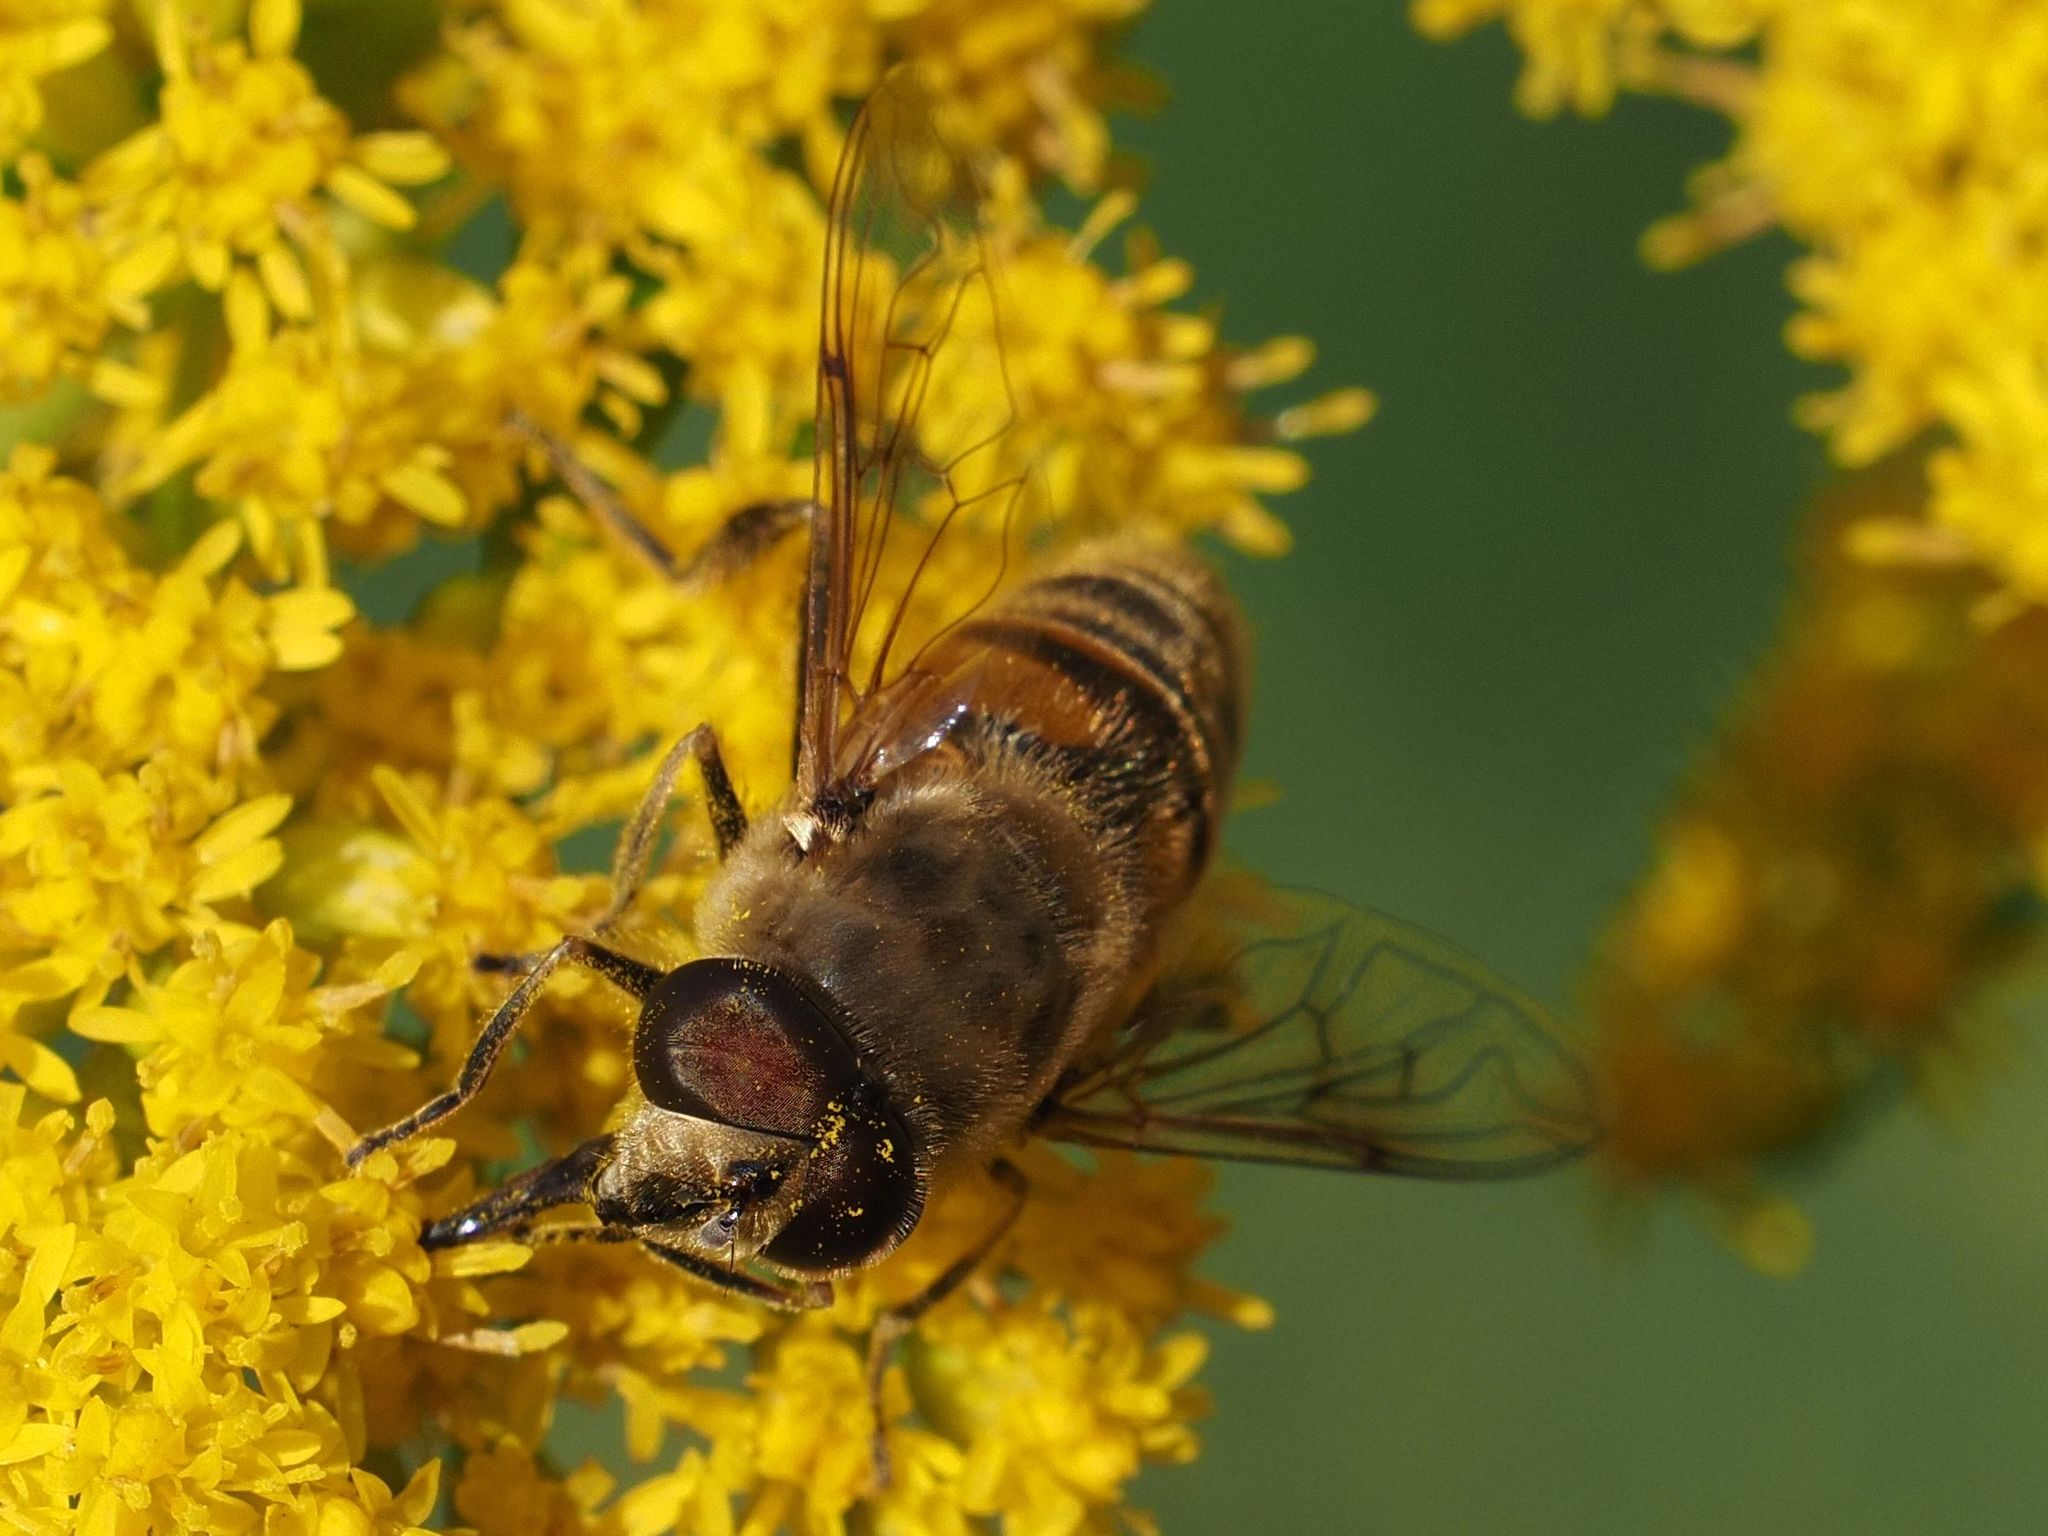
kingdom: Animalia
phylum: Arthropoda
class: Insecta
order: Diptera
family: Syrphidae
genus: Eristalis
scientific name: Eristalis tenax
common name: Drone fly
